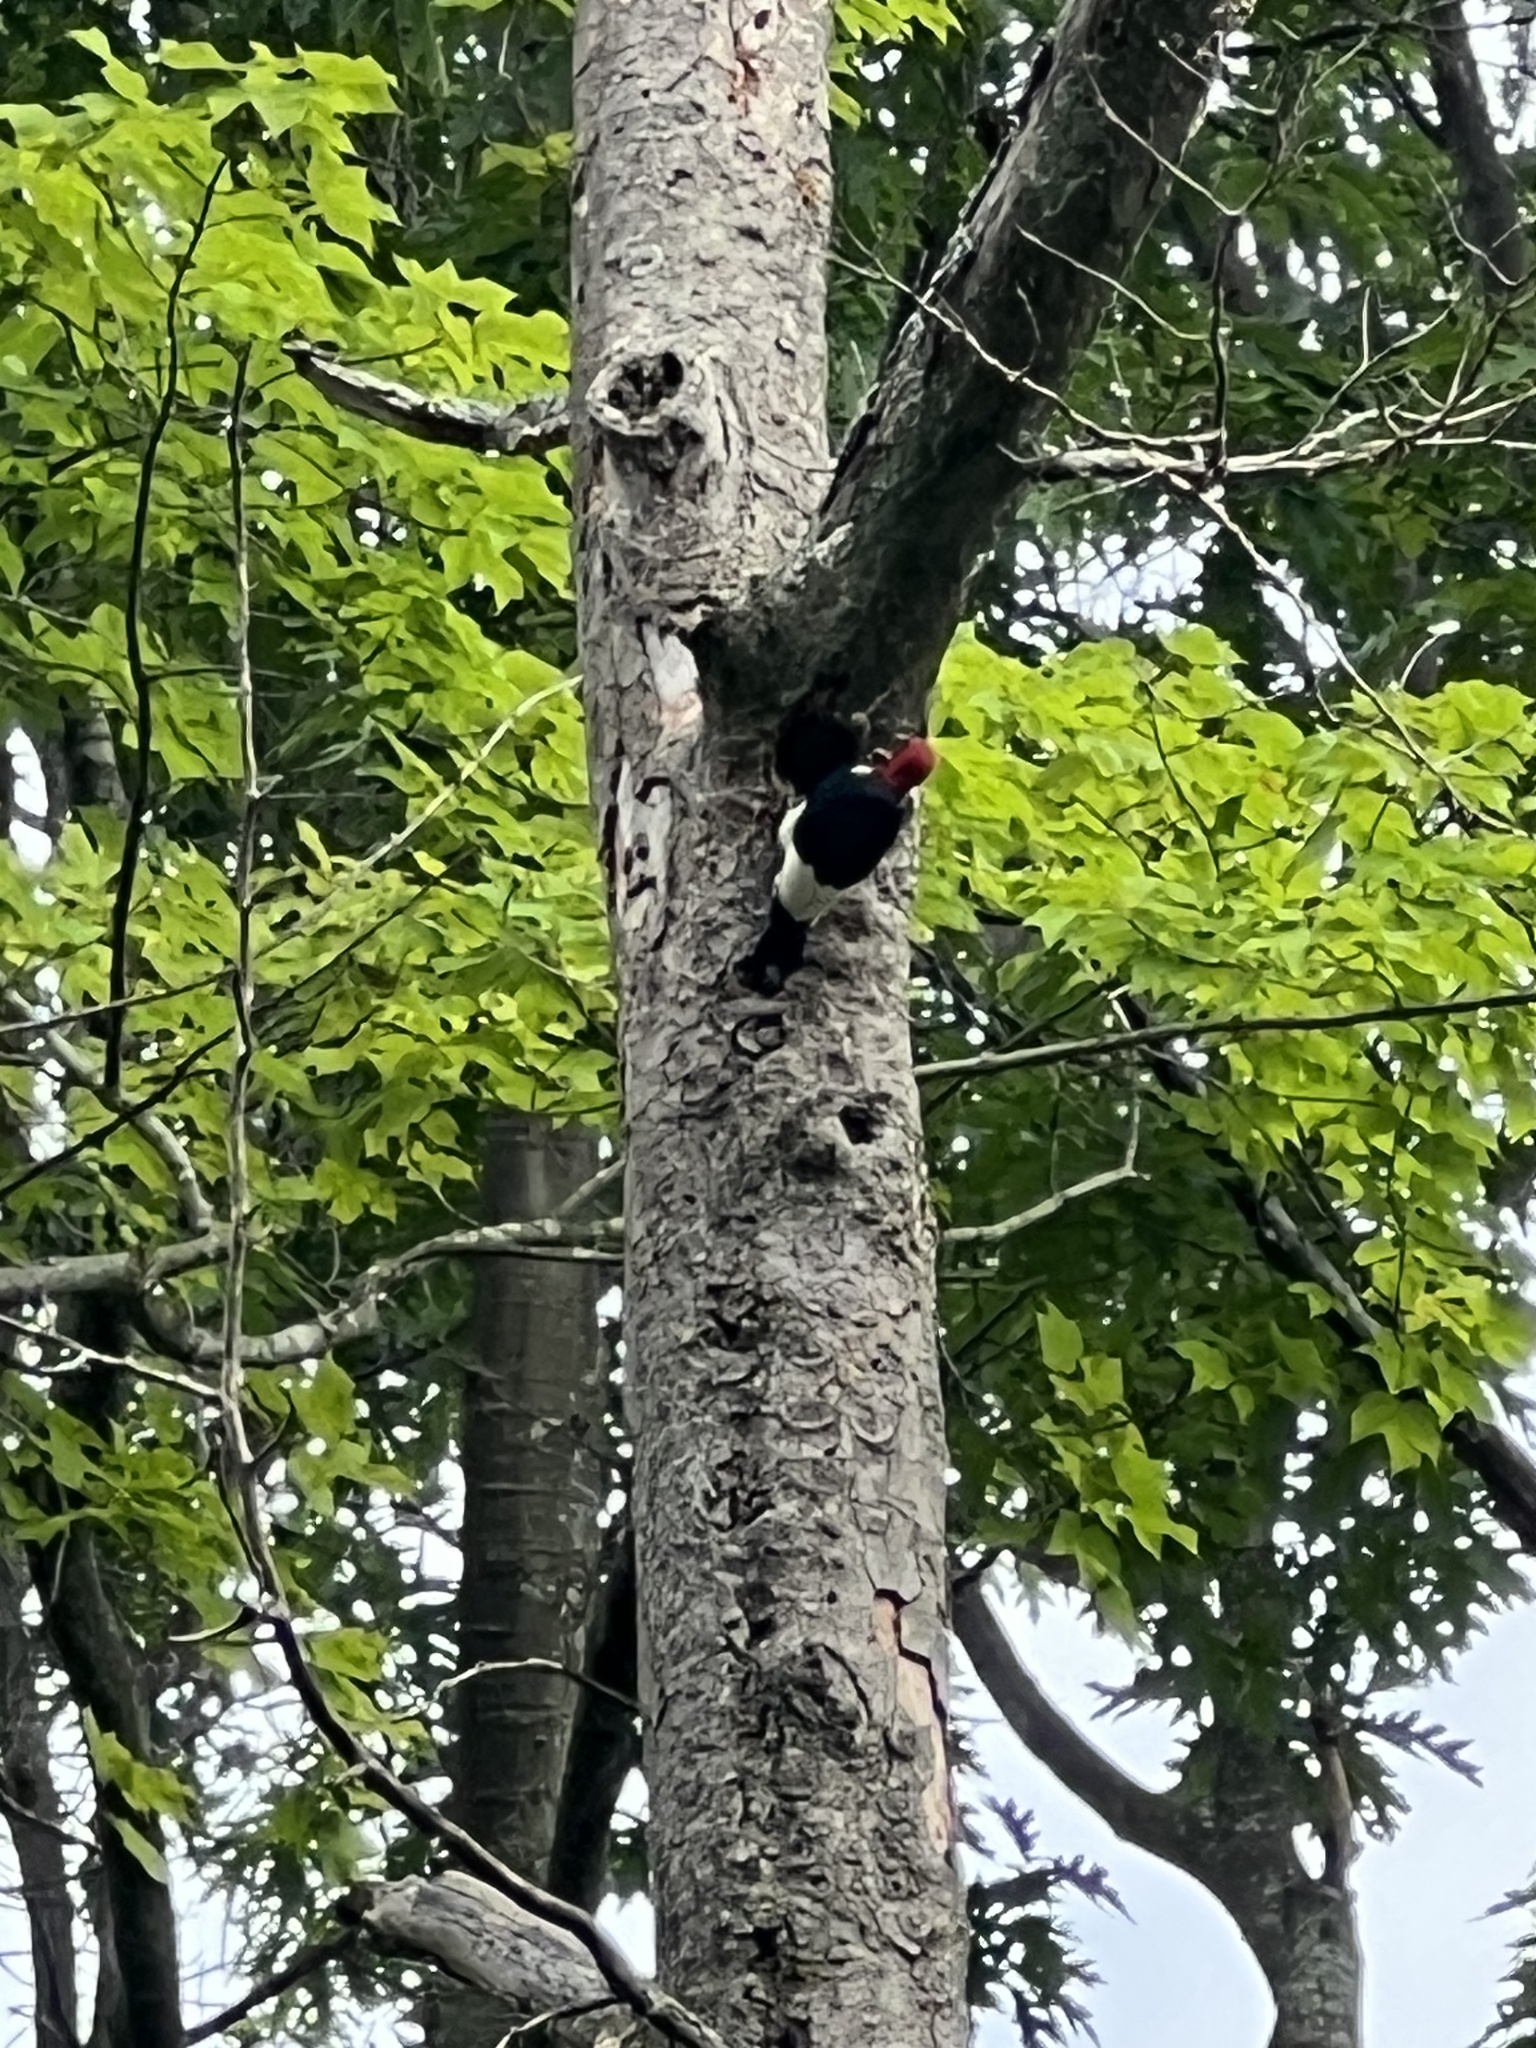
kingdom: Animalia
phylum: Chordata
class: Aves
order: Piciformes
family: Picidae
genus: Melanerpes
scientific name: Melanerpes erythrocephalus
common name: Red-headed woodpecker
